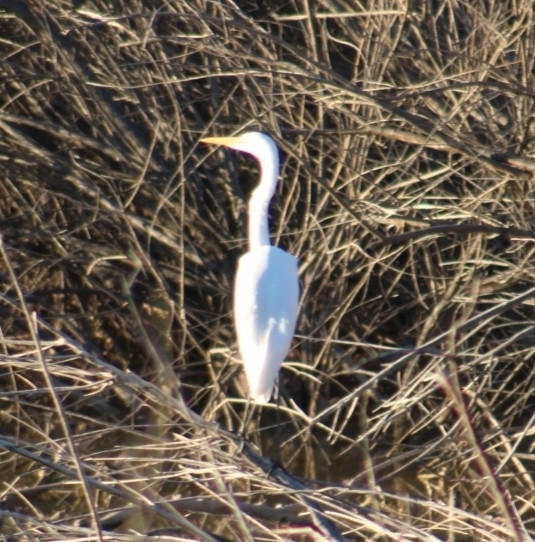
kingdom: Animalia
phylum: Chordata
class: Aves
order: Pelecaniformes
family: Ardeidae
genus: Ardea
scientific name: Ardea alba
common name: Great egret
